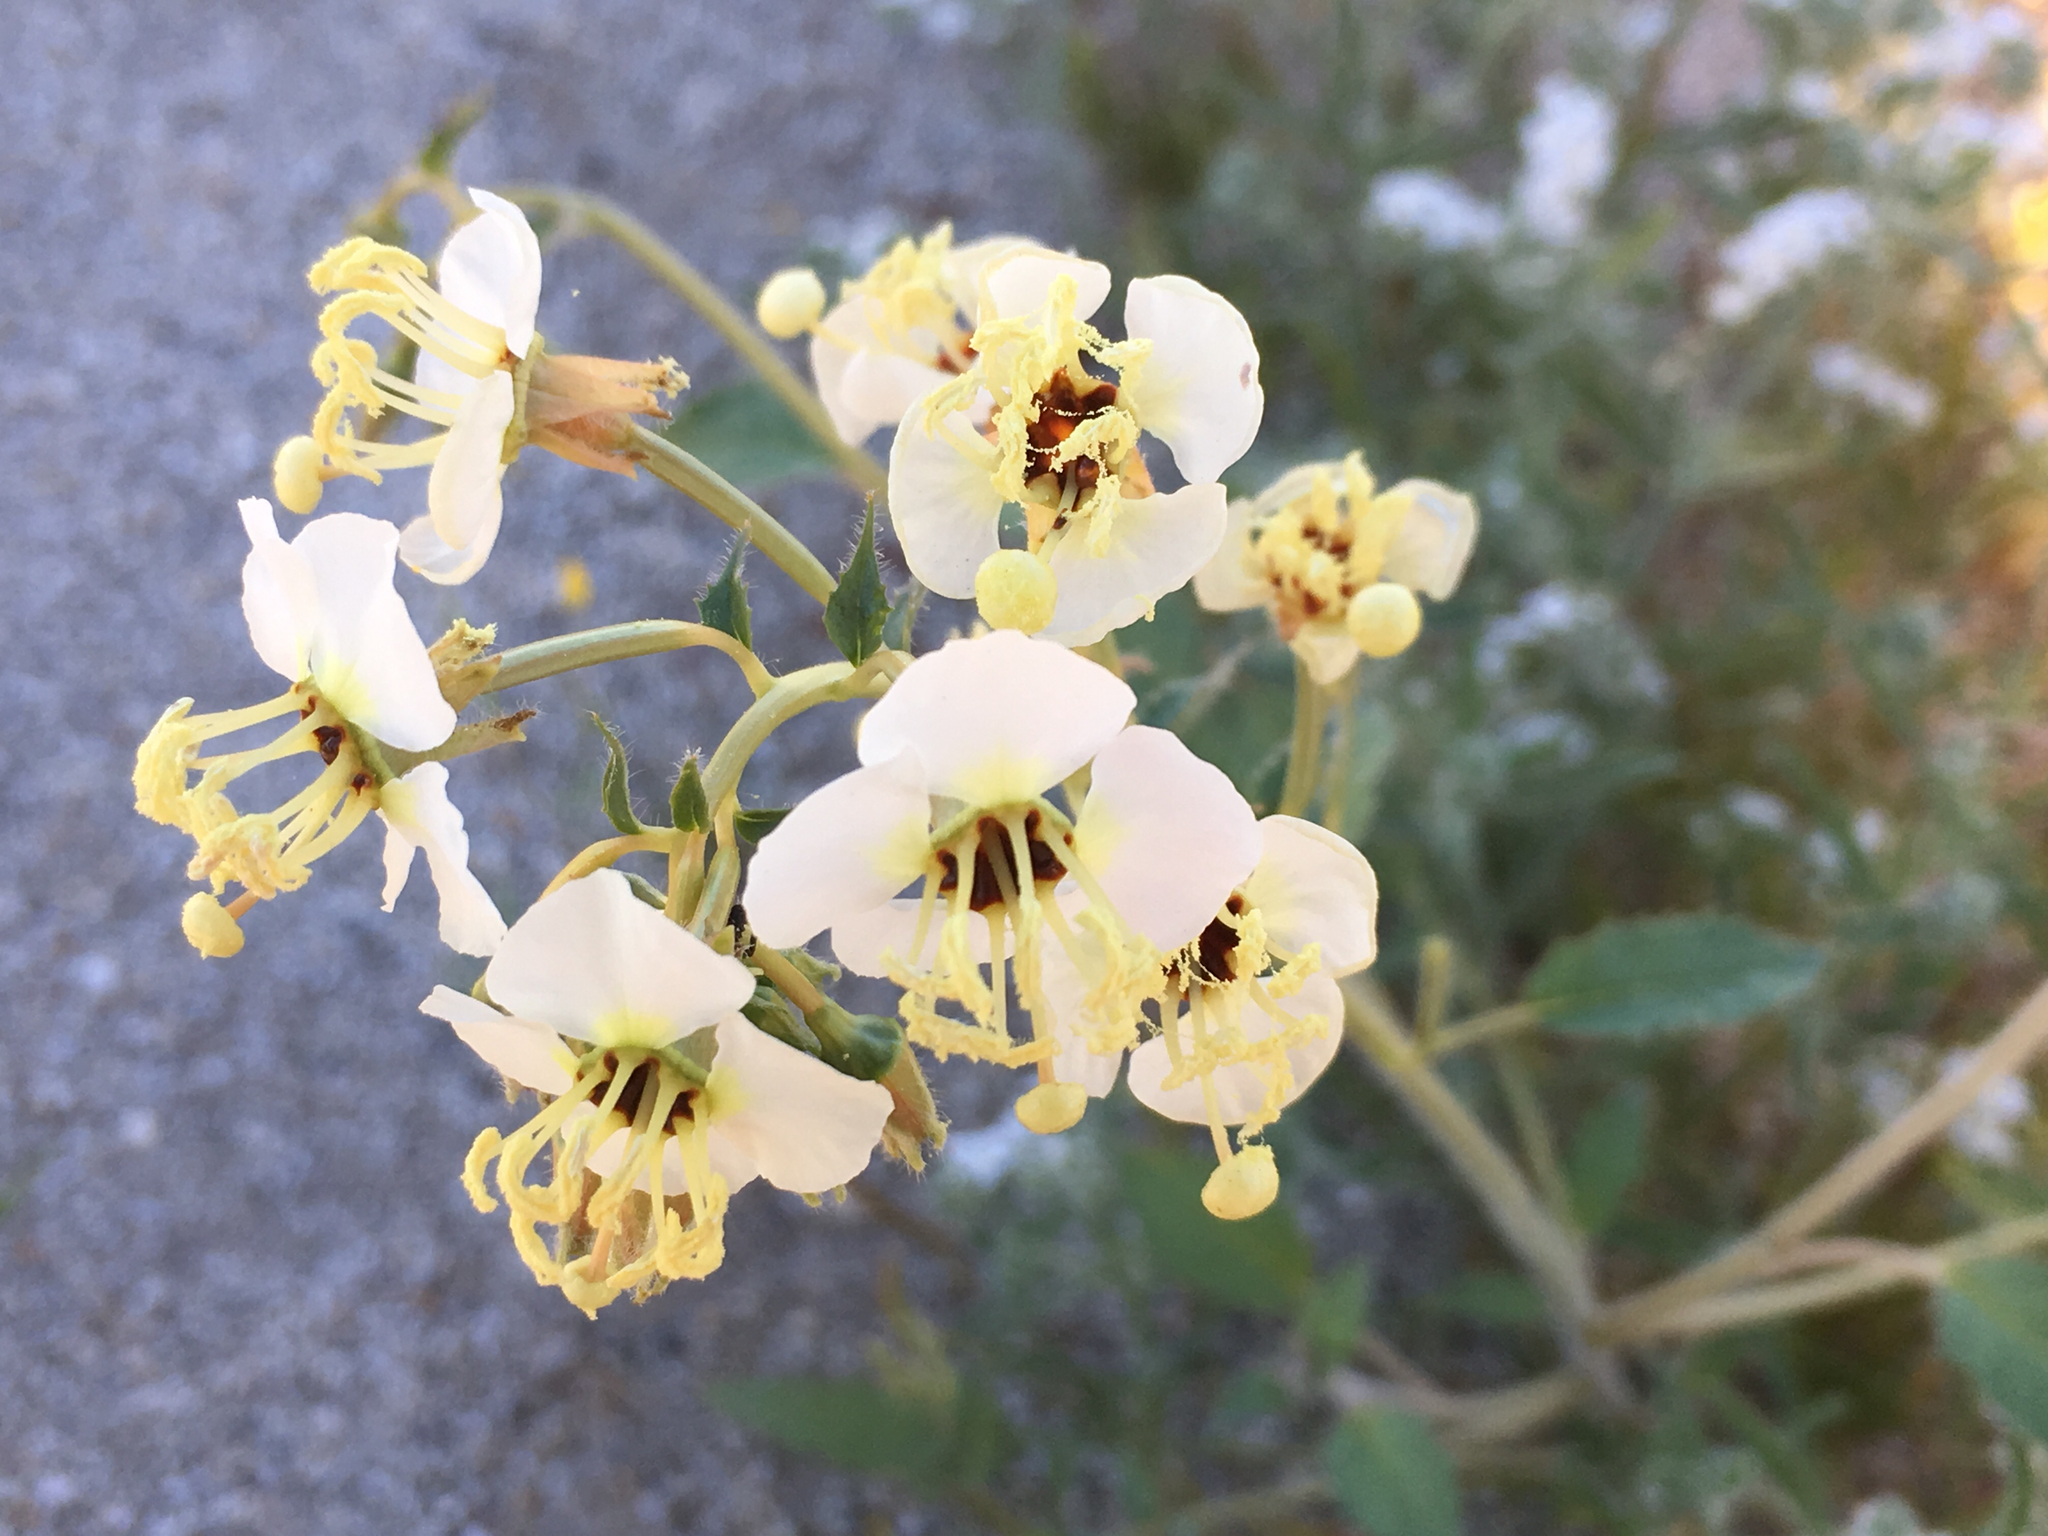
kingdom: Plantae
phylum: Tracheophyta
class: Magnoliopsida
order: Myrtales
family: Onagraceae
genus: Chylismia
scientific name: Chylismia claviformis
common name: Browneyes
